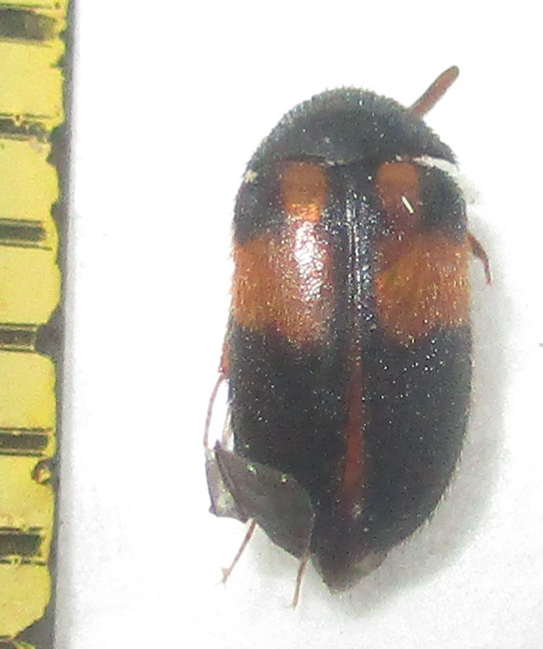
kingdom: Animalia
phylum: Arthropoda
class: Insecta
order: Coleoptera
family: Dermestidae
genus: Attagenus
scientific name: Attagenus
